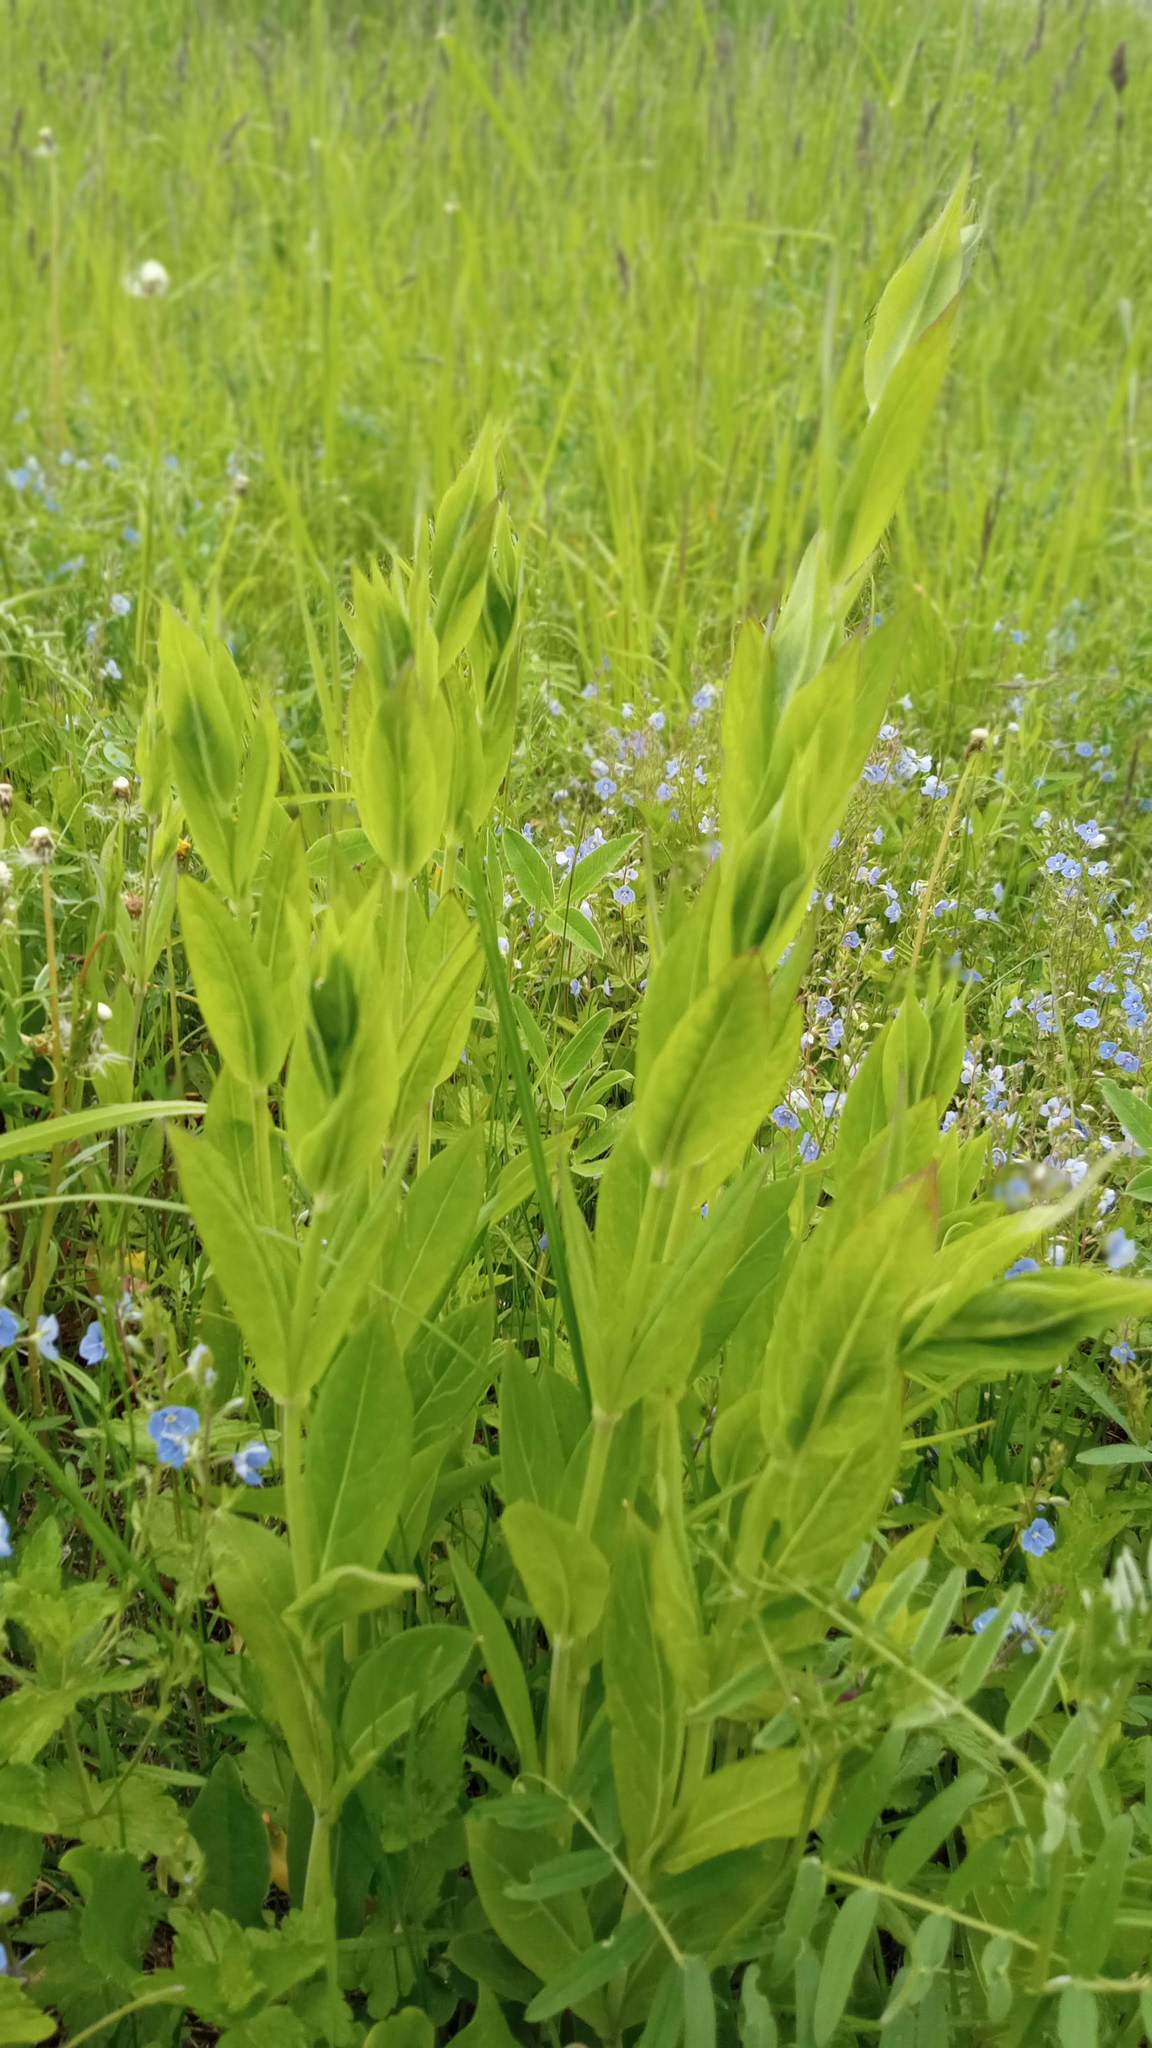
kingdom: Plantae
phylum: Tracheophyta
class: Magnoliopsida
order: Caryophyllales
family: Caryophyllaceae
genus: Silene
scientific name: Silene vulgaris
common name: Bladder campion
